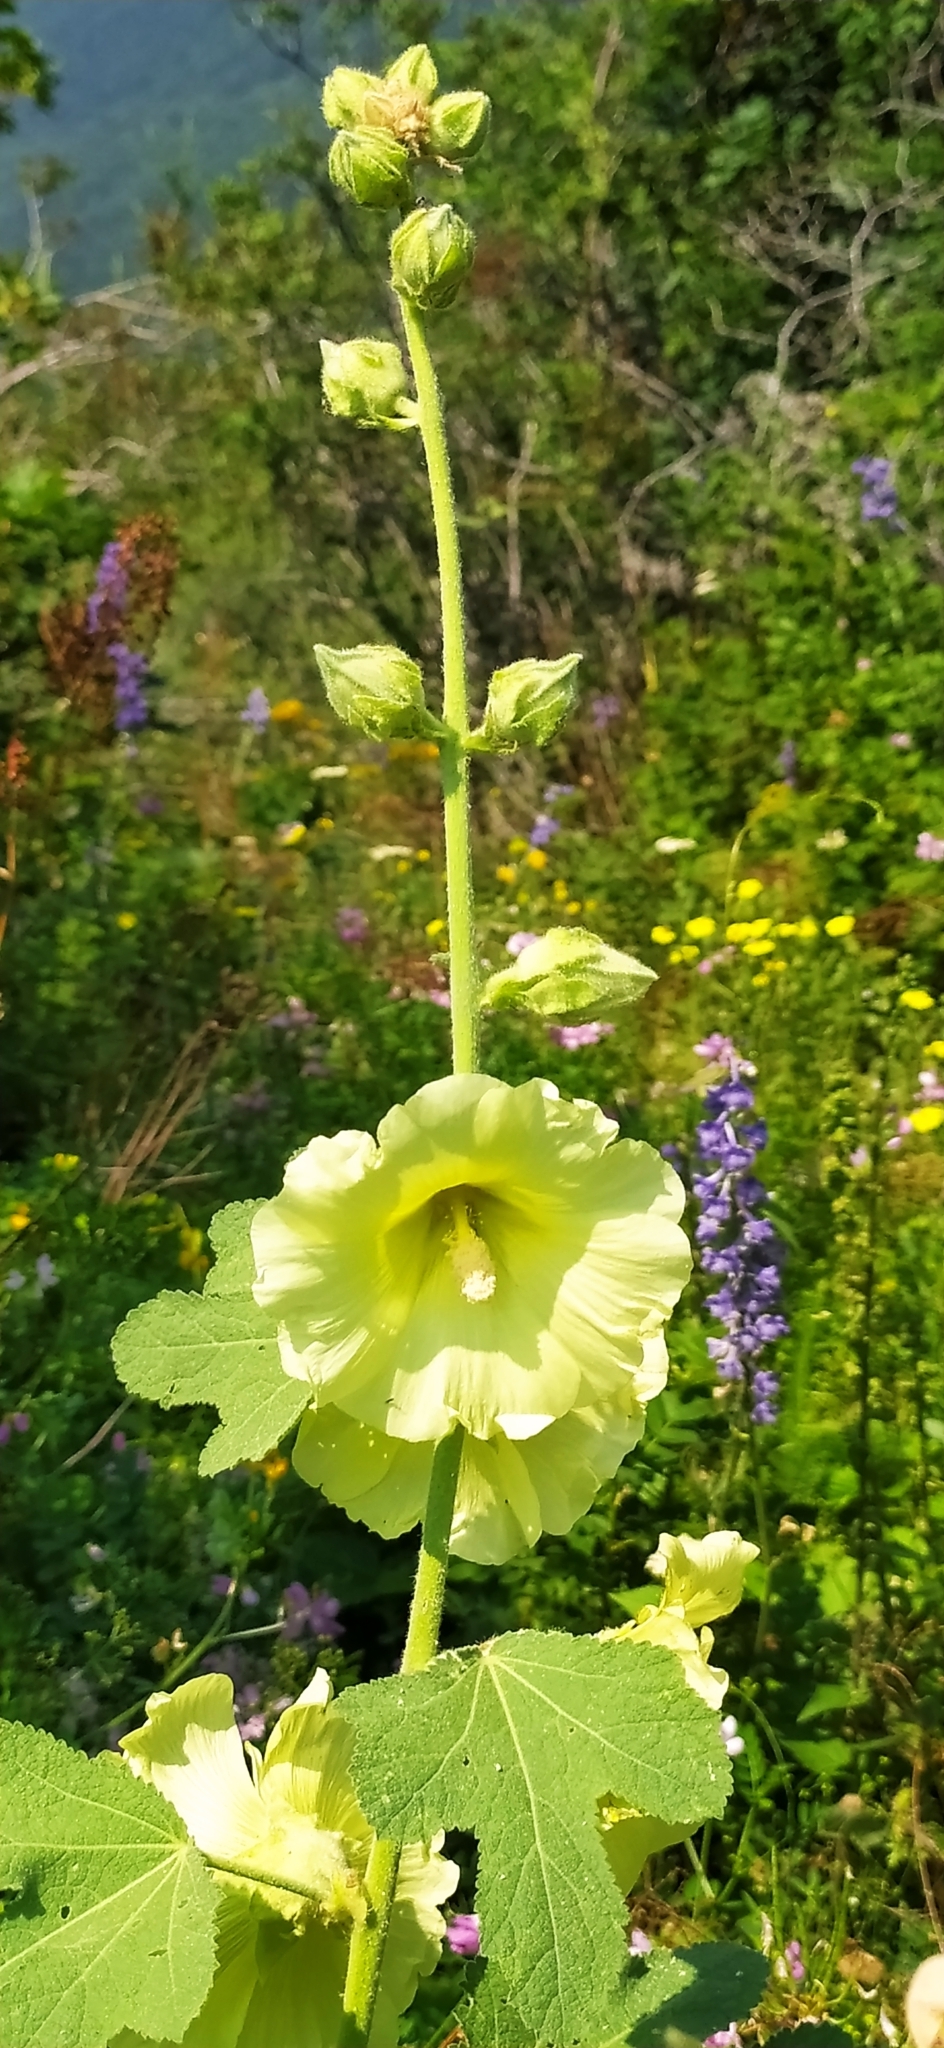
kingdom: Plantae
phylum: Tracheophyta
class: Magnoliopsida
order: Malvales
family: Malvaceae
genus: Alcea
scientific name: Alcea rugosa
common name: Russian hollyhock
